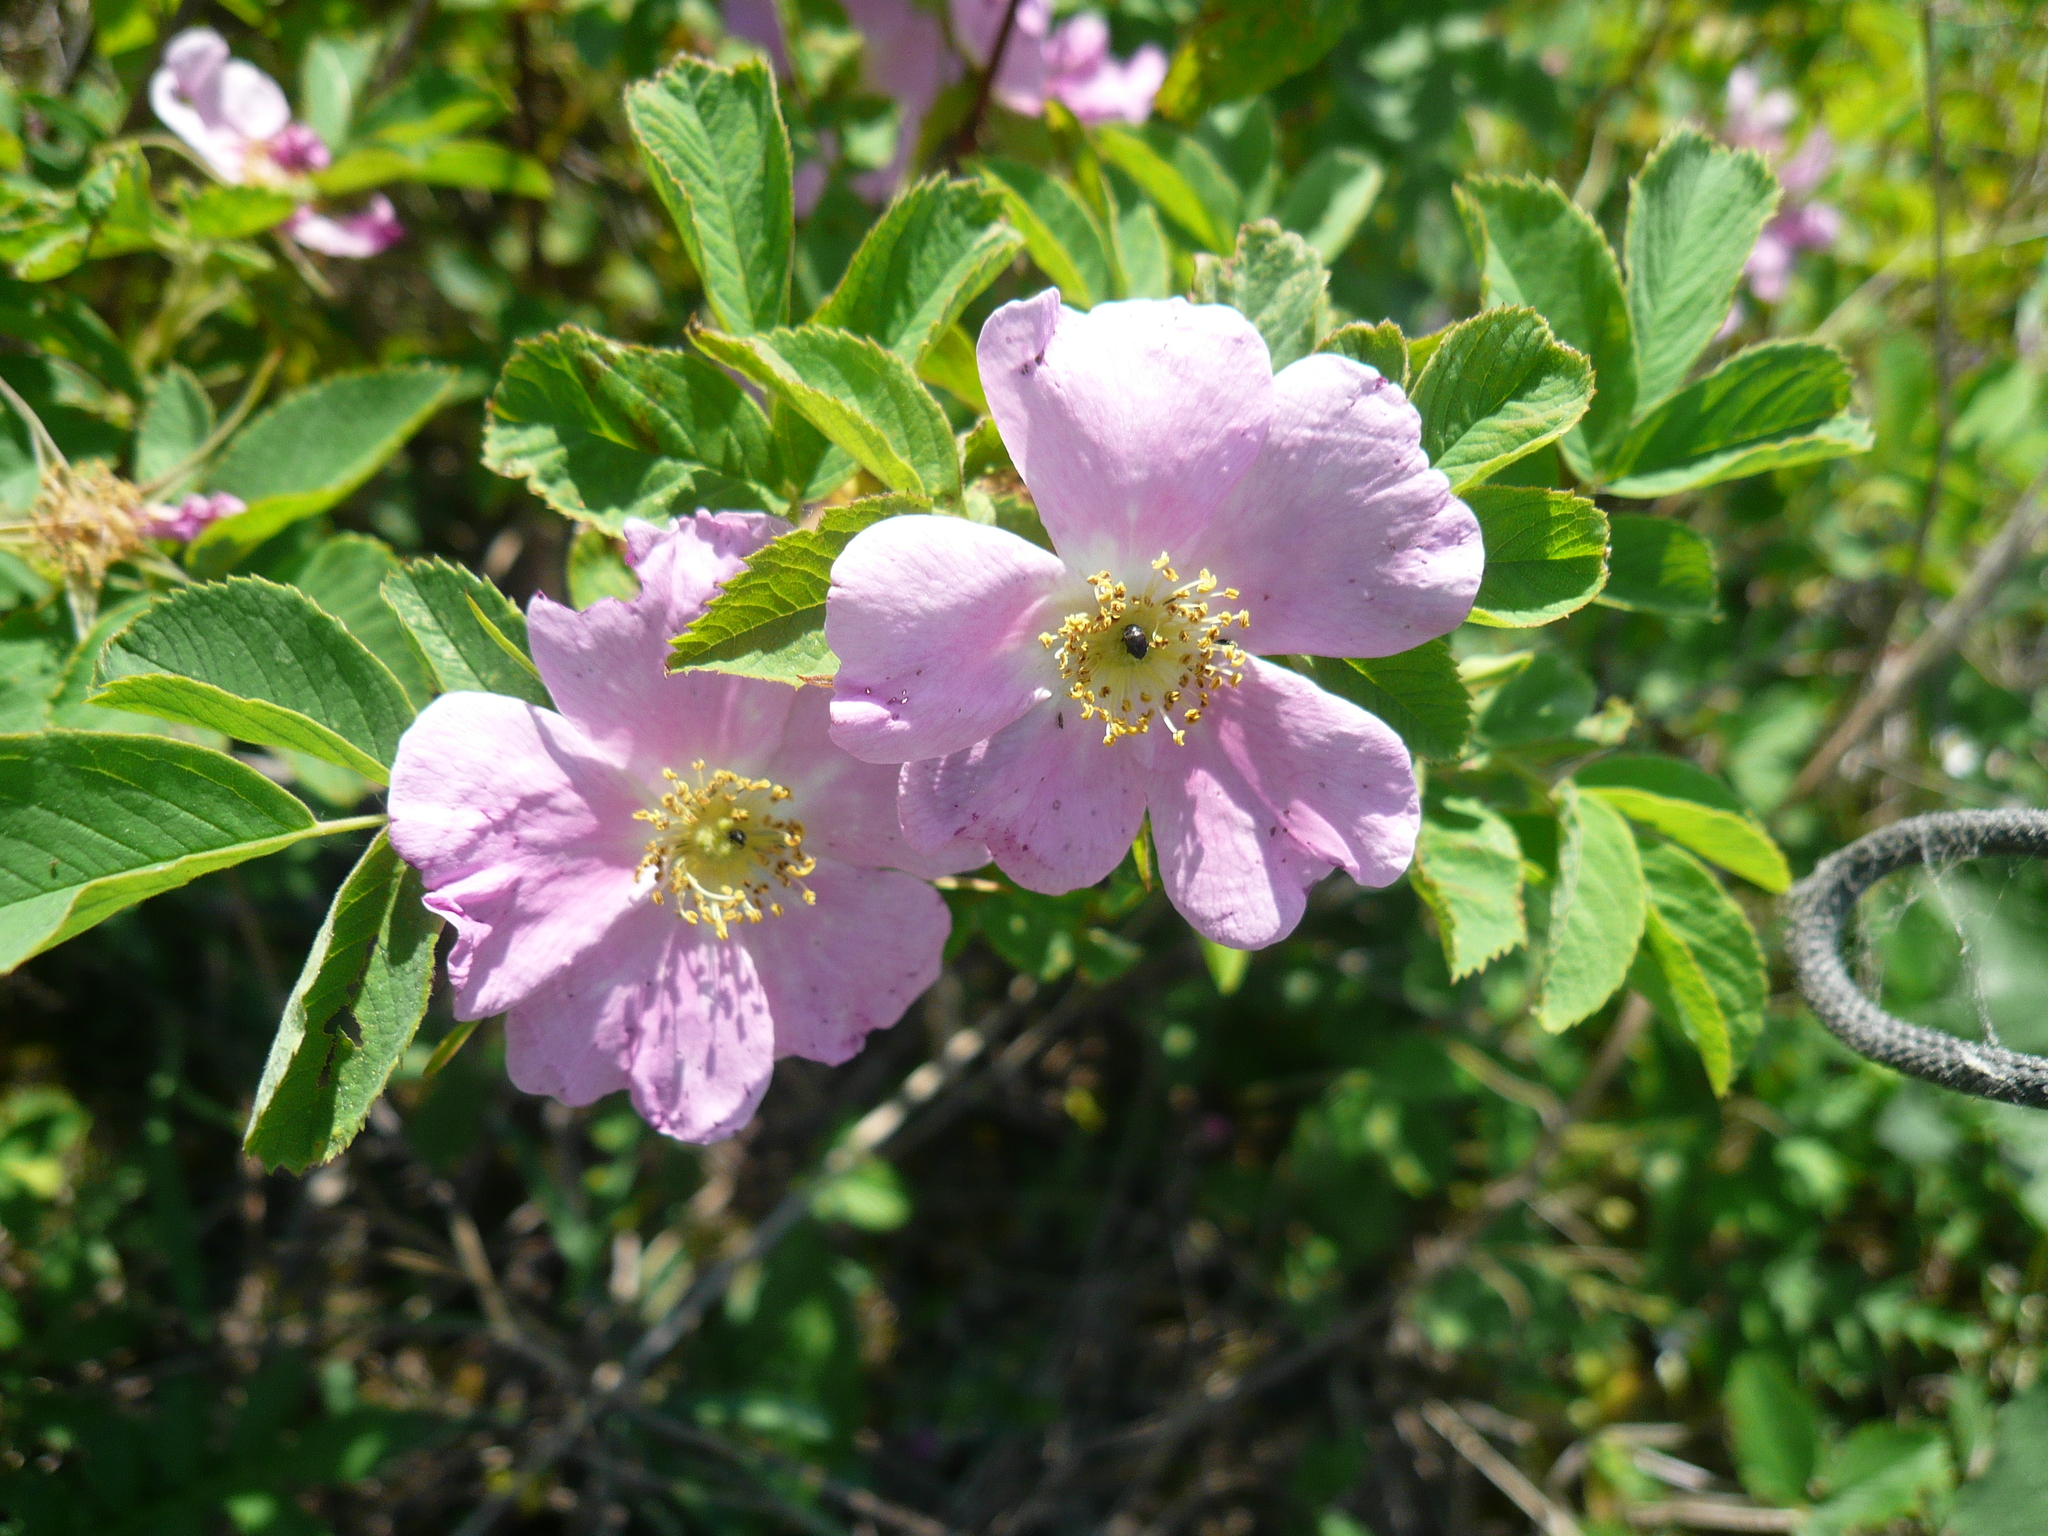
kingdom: Plantae
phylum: Tracheophyta
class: Magnoliopsida
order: Rosales
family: Rosaceae
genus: Rosa
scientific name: Rosa majalis
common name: Cinnamon rose
